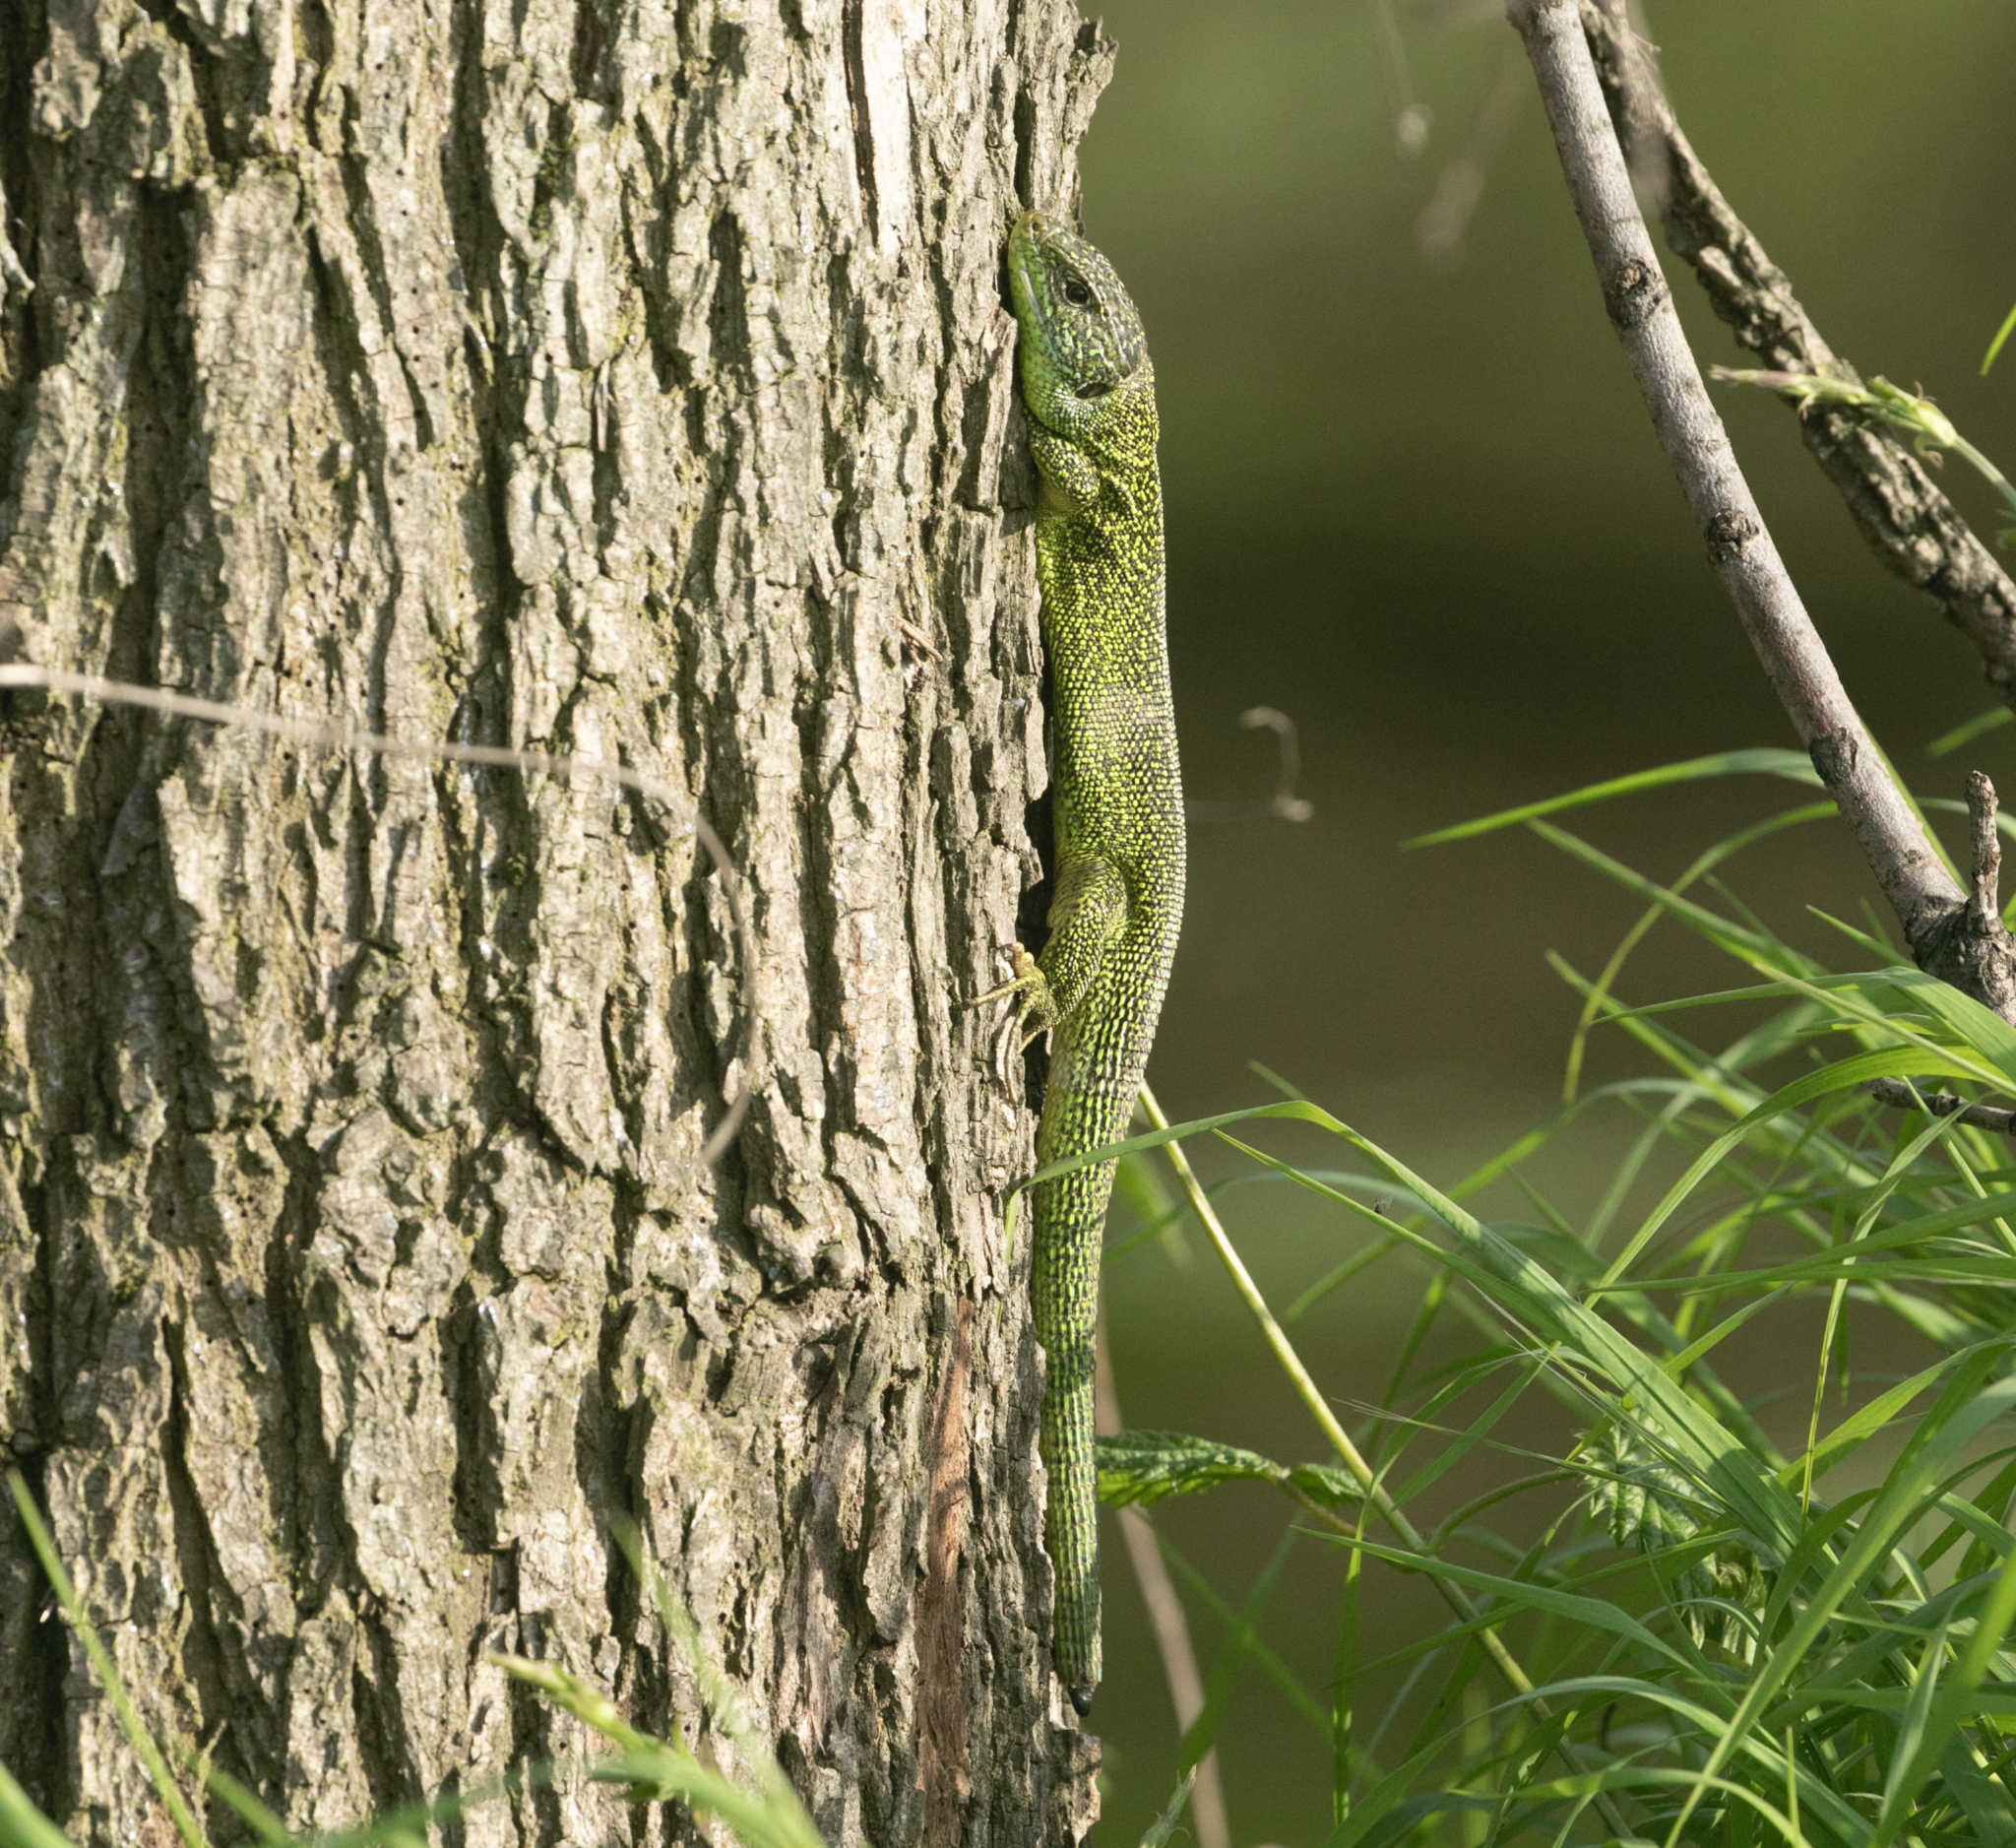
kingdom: Animalia
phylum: Chordata
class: Squamata
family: Lacertidae
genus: Lacerta
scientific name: Lacerta bilineata
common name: Western green lizard
